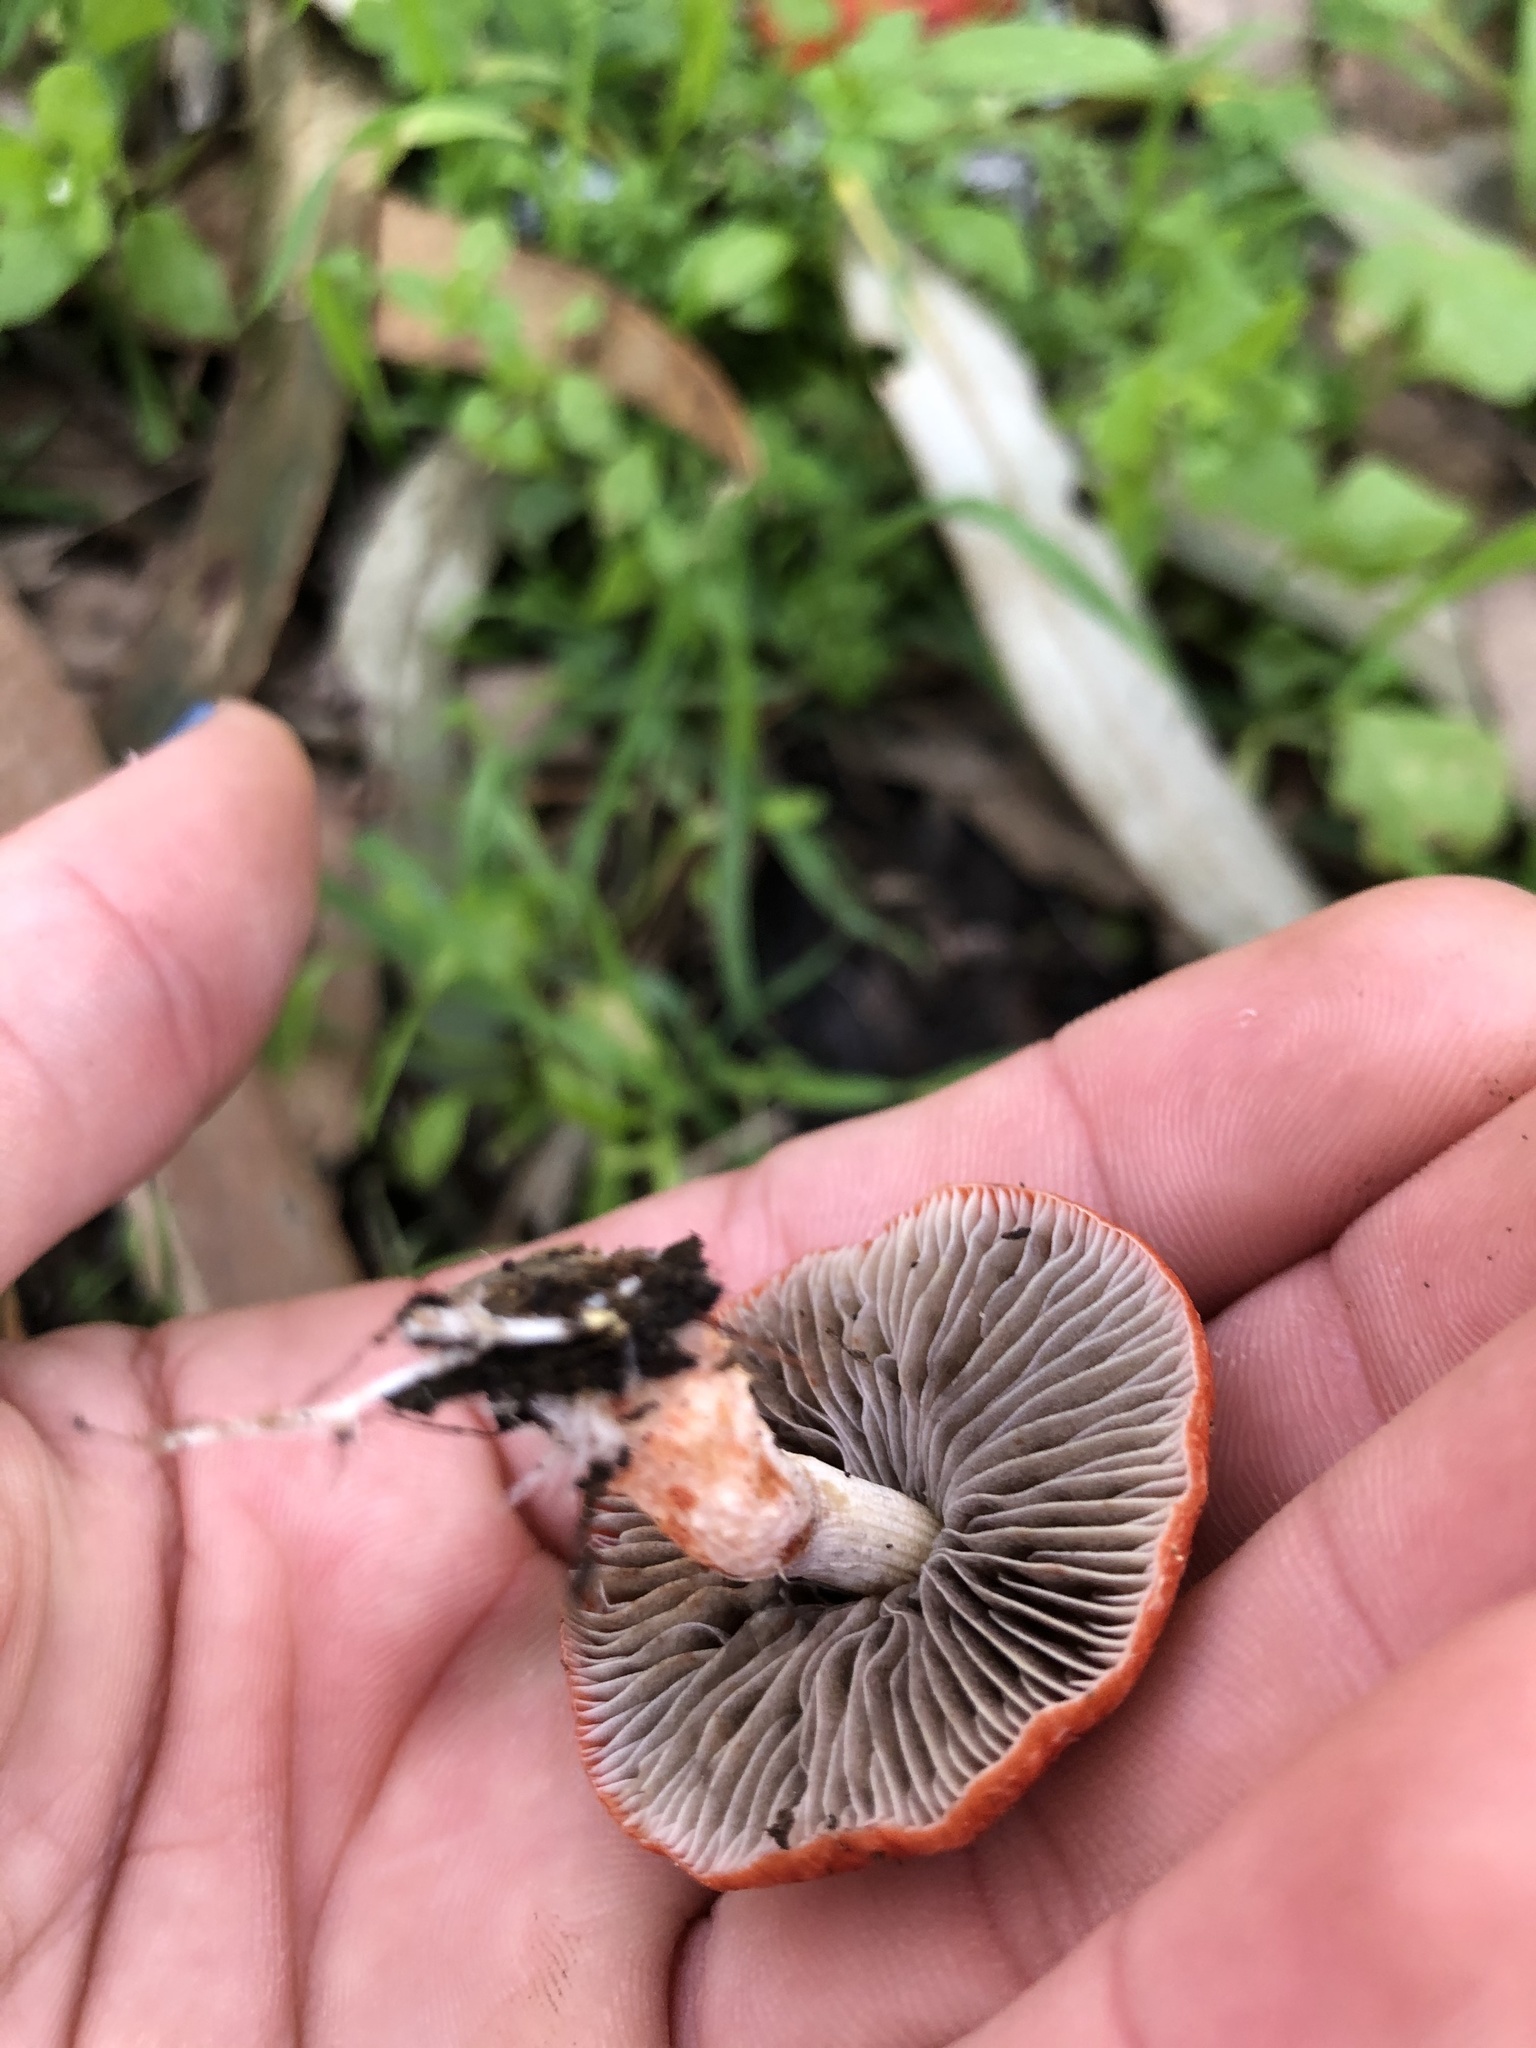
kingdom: Fungi
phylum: Basidiomycota
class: Agaricomycetes
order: Agaricales
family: Strophariaceae
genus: Leratiomyces
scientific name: Leratiomyces ceres
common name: Redlead roundhead
